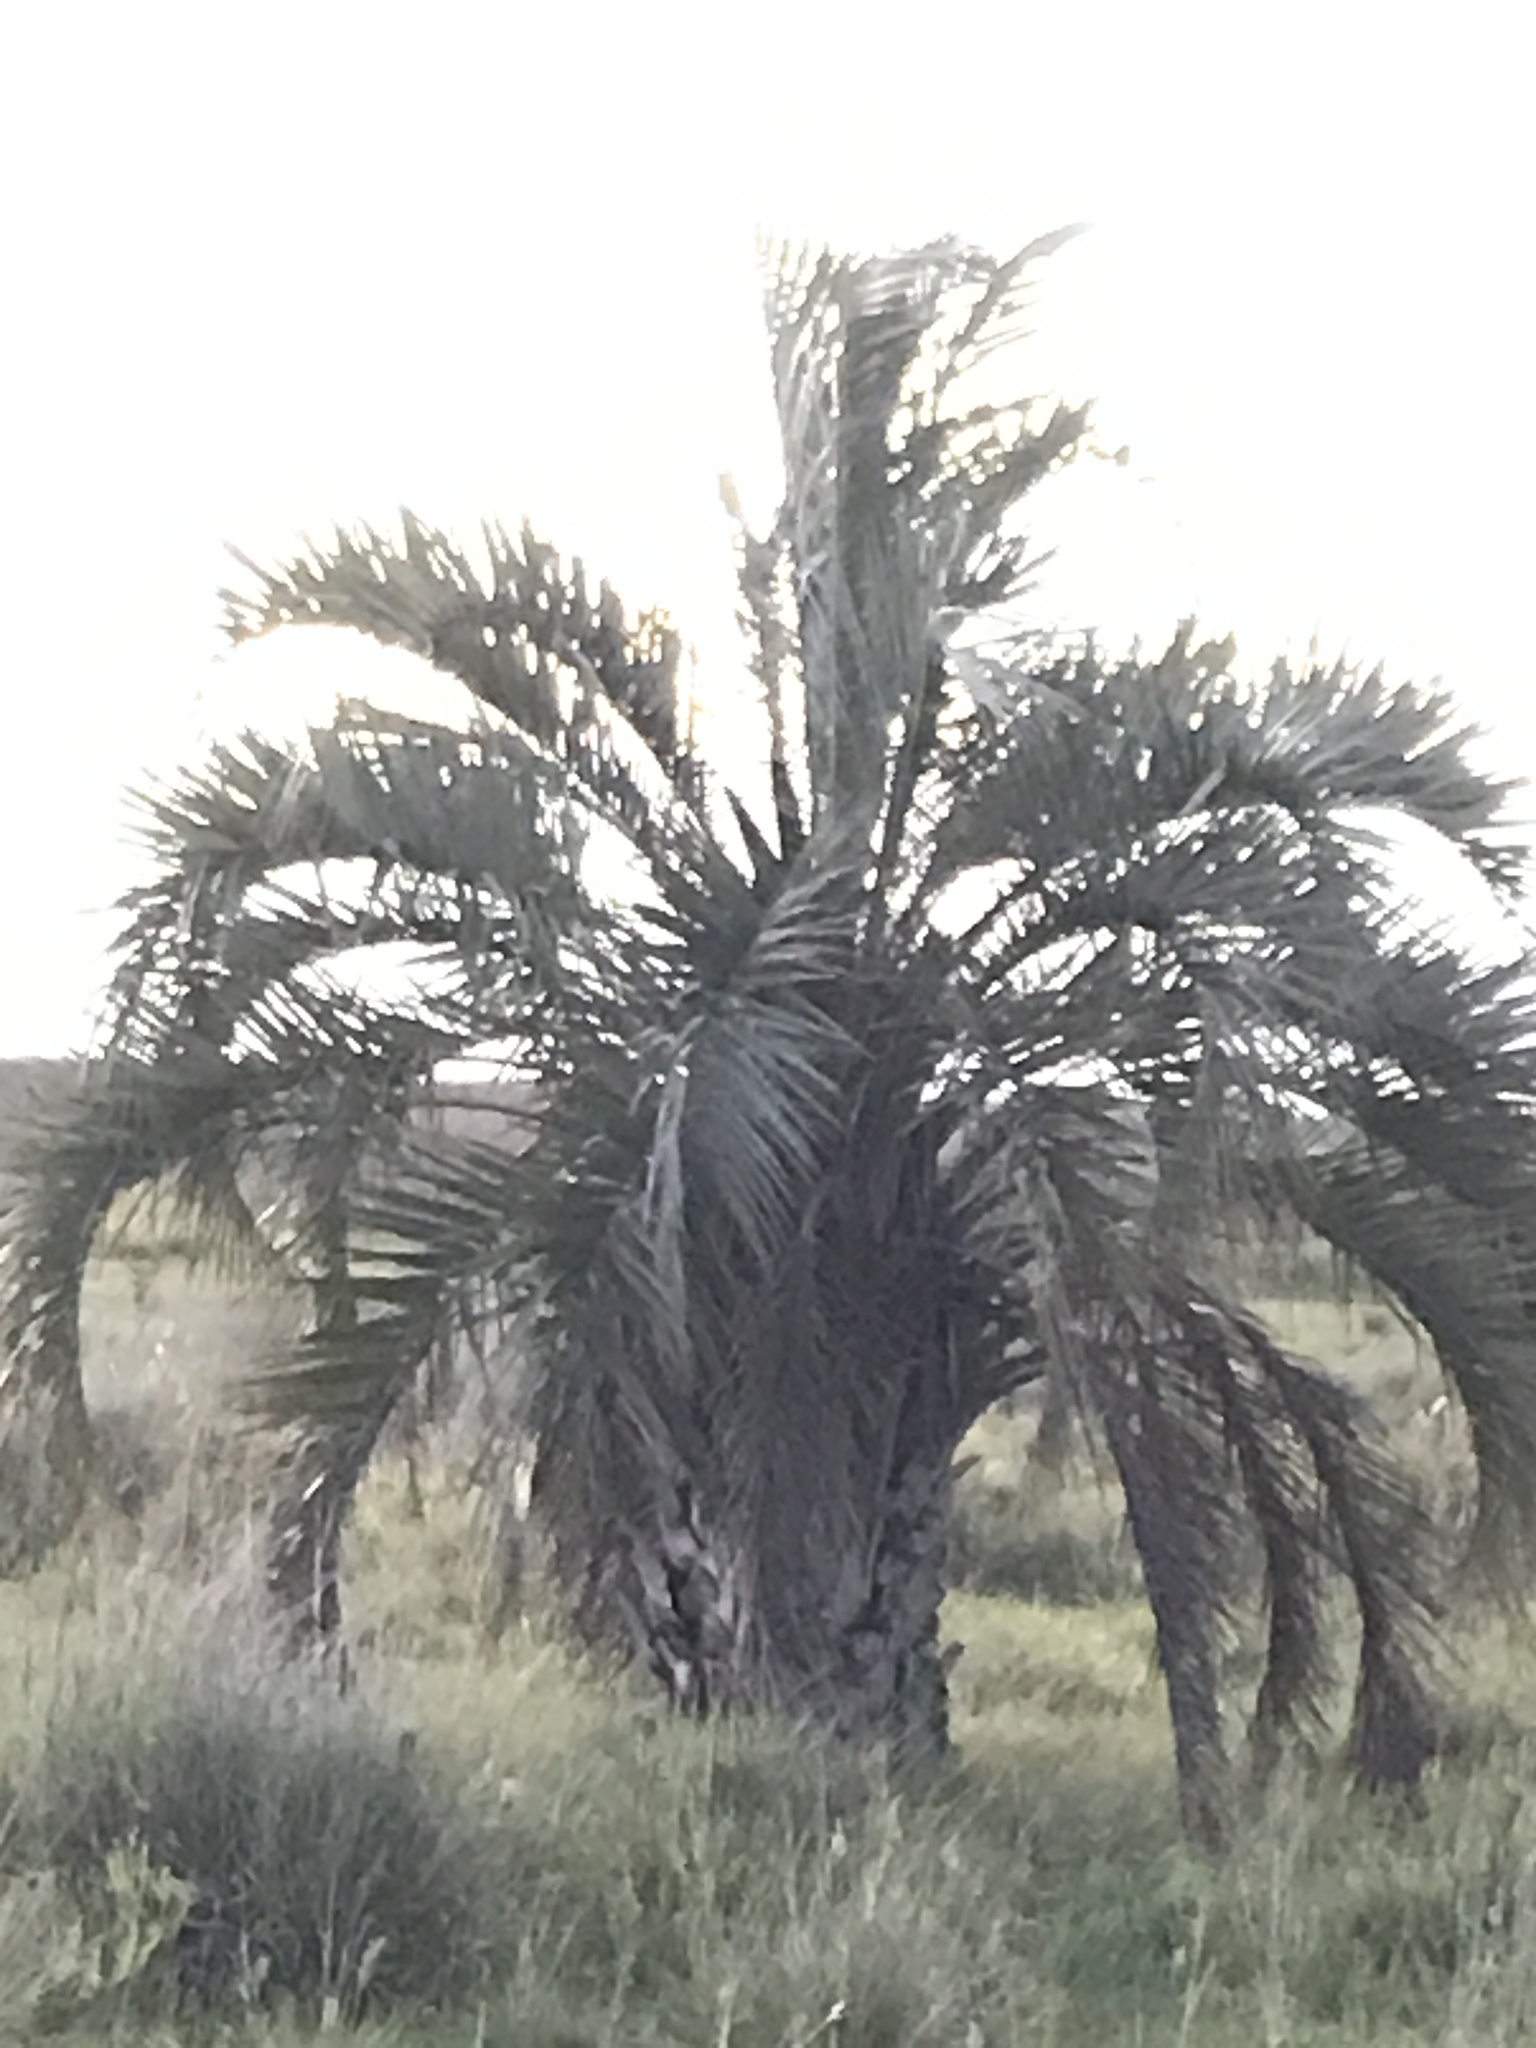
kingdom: Plantae
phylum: Tracheophyta
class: Liliopsida
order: Arecales
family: Arecaceae
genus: Butia
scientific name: Butia odorata
